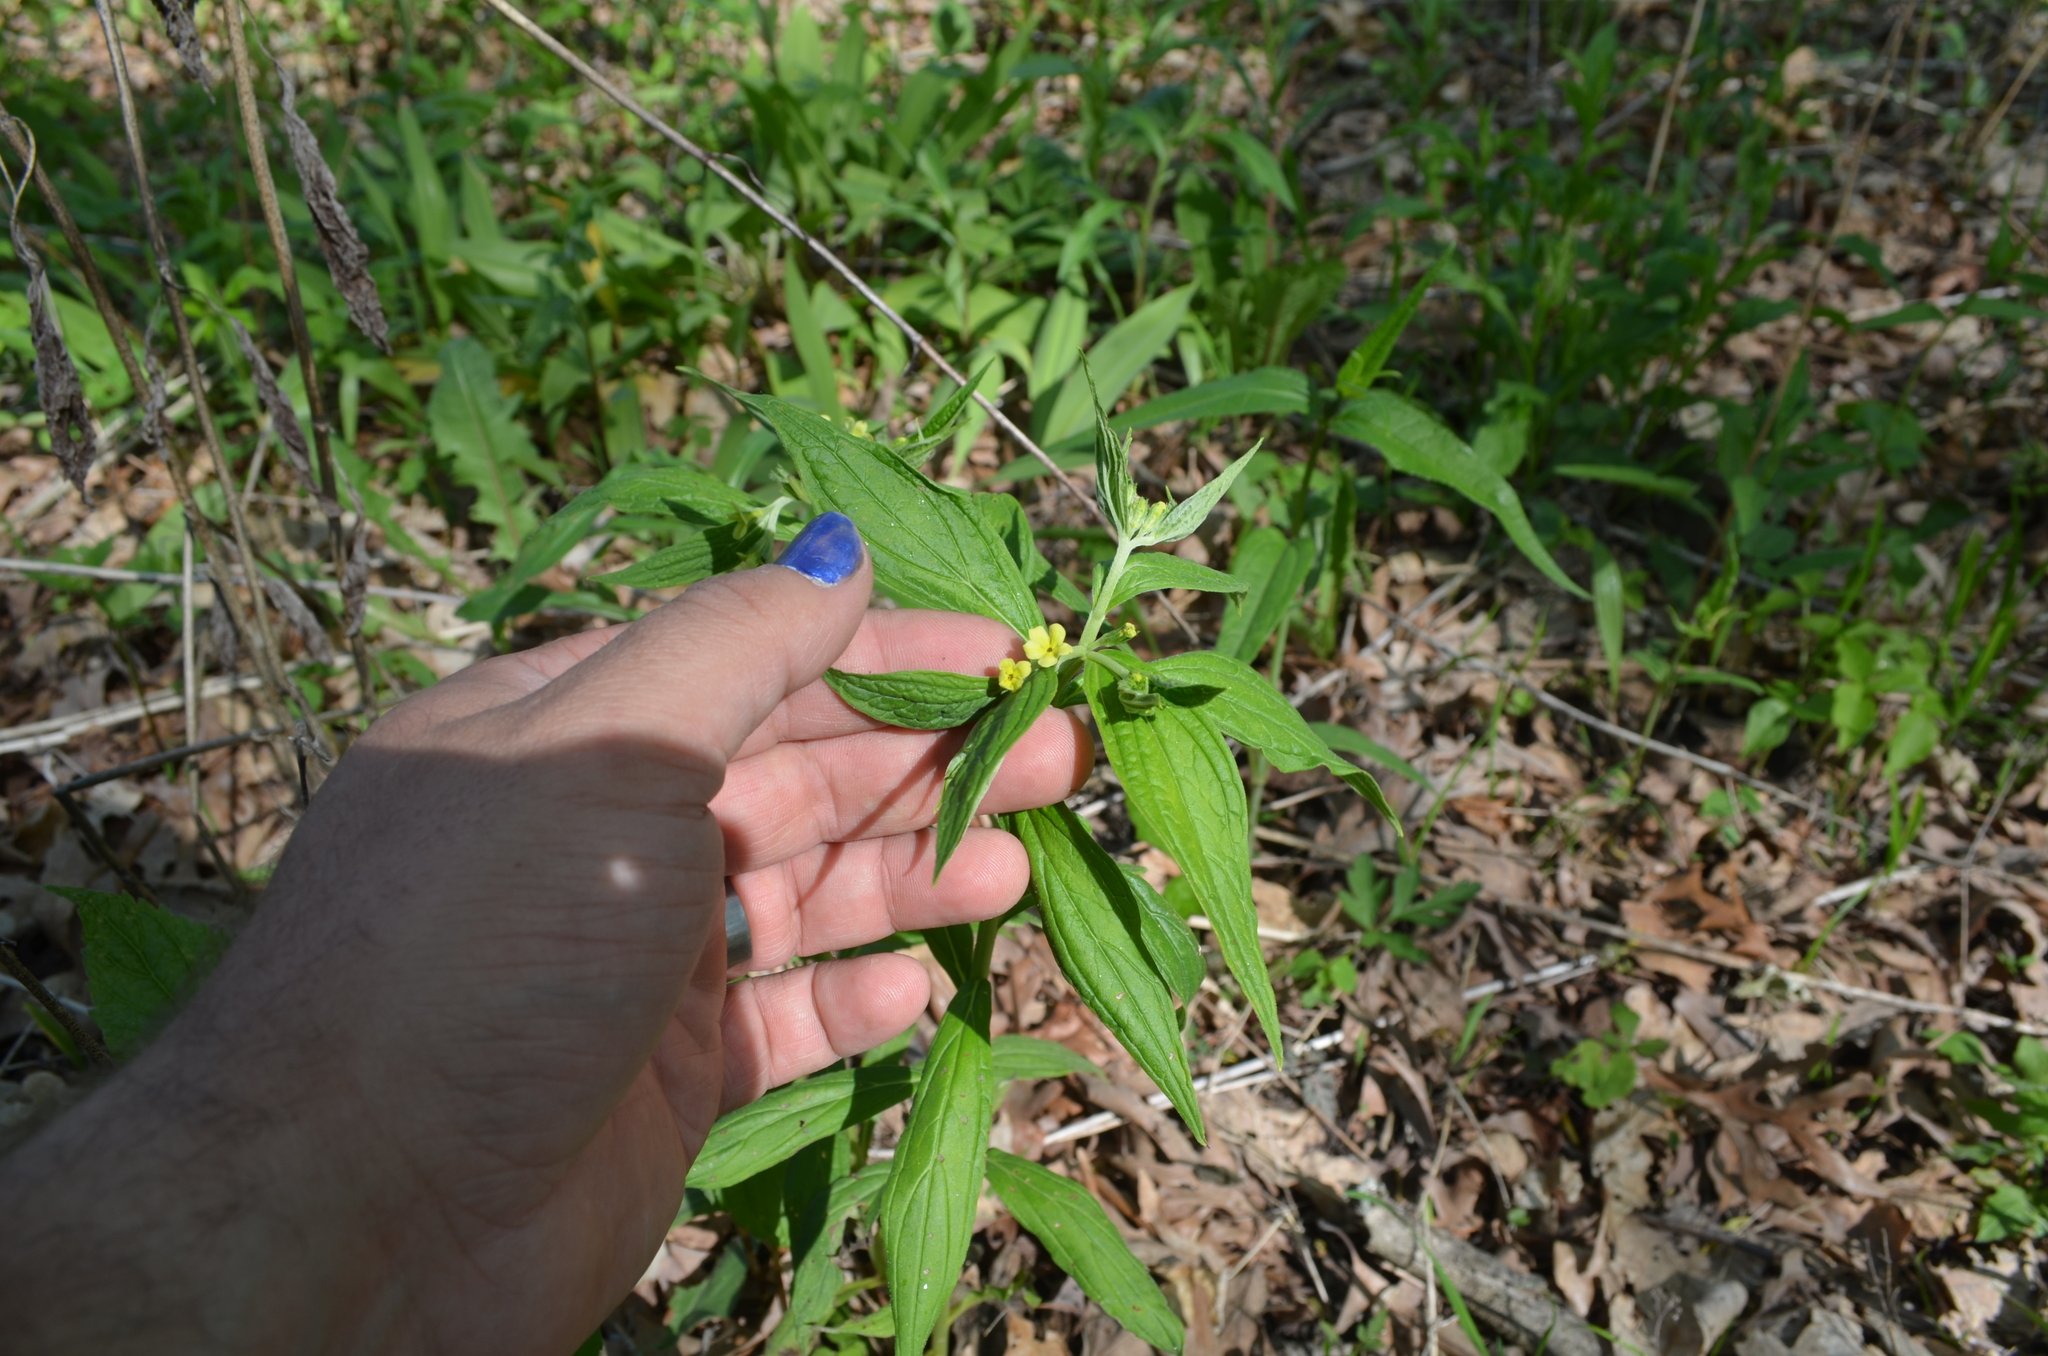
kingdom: Plantae
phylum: Tracheophyta
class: Magnoliopsida
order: Boraginales
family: Boraginaceae
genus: Lithospermum
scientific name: Lithospermum latifolium
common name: American gromwell
